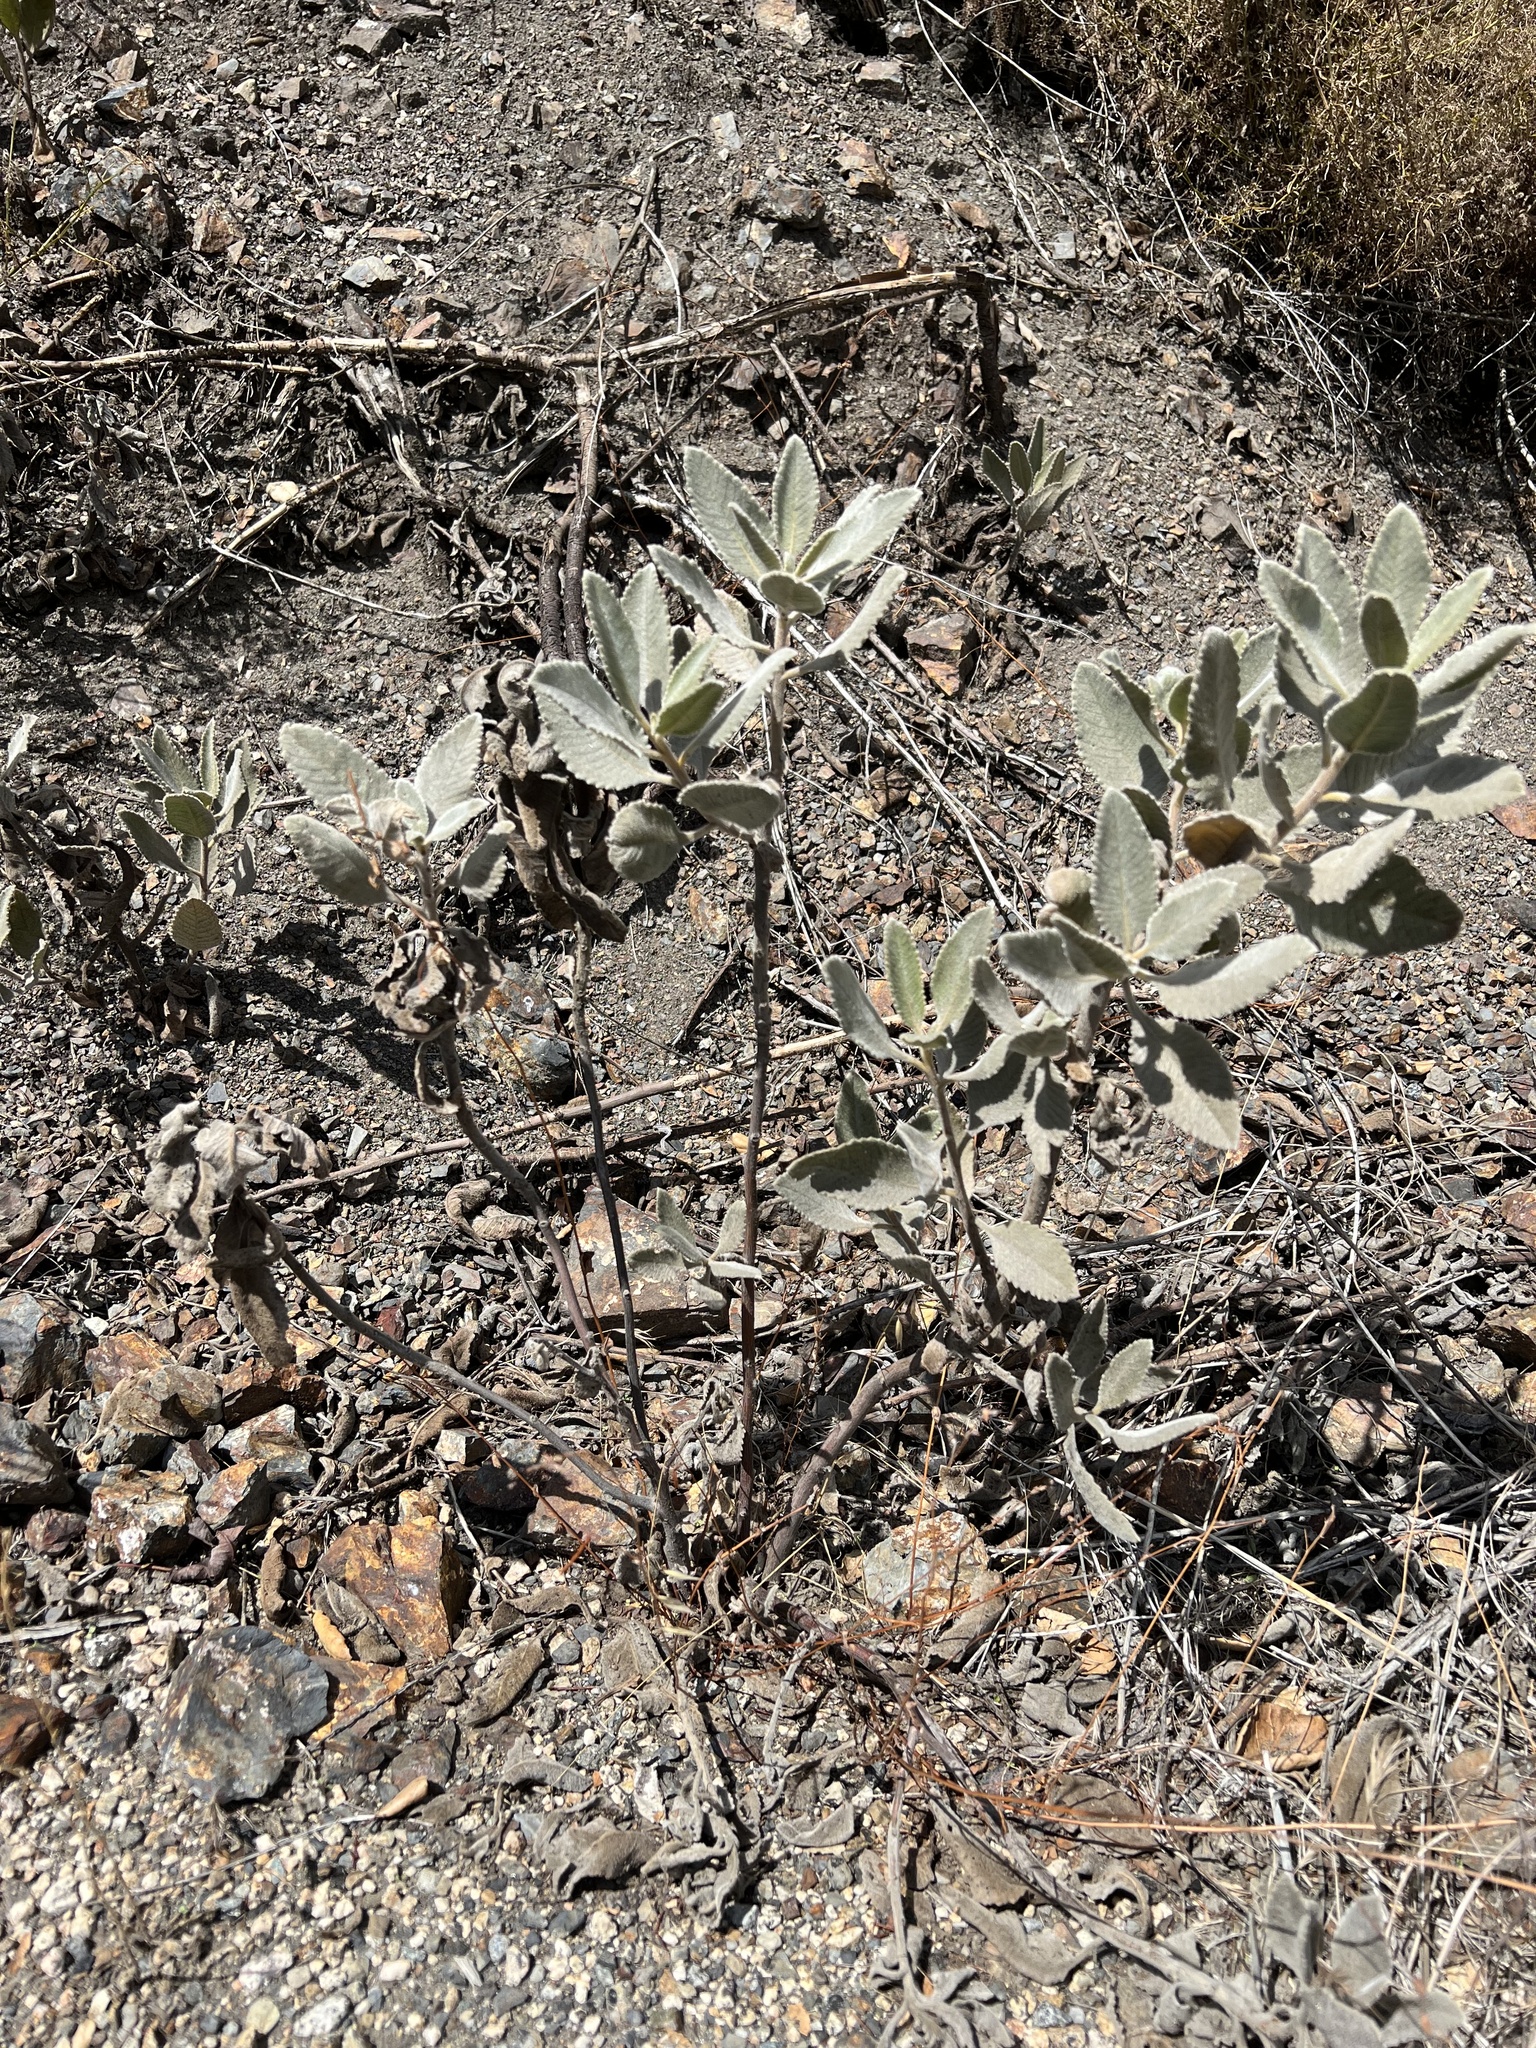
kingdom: Plantae
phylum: Tracheophyta
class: Magnoliopsida
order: Boraginales
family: Namaceae
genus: Eriodictyon
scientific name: Eriodictyon crassifolium
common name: Thick-leaf yerba-santa
